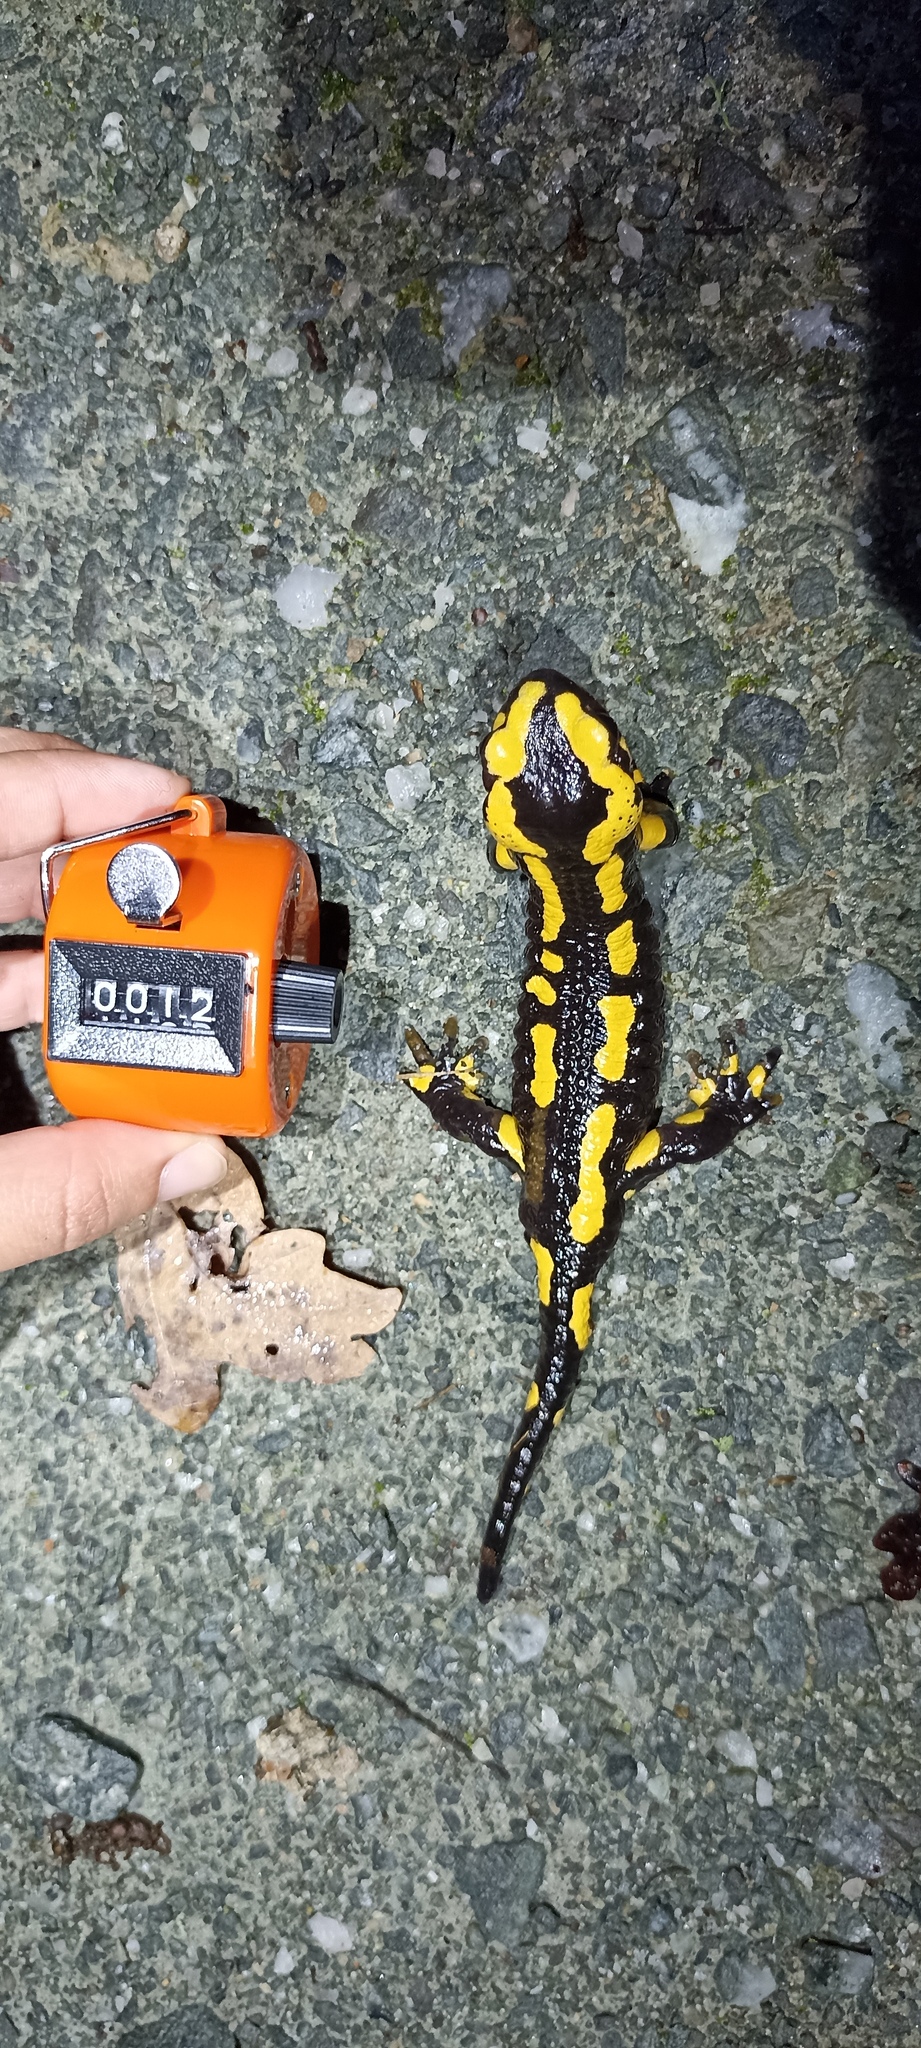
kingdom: Animalia
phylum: Chordata
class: Amphibia
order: Caudata
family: Salamandridae
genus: Salamandra
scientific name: Salamandra salamandra
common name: Fire salamander
